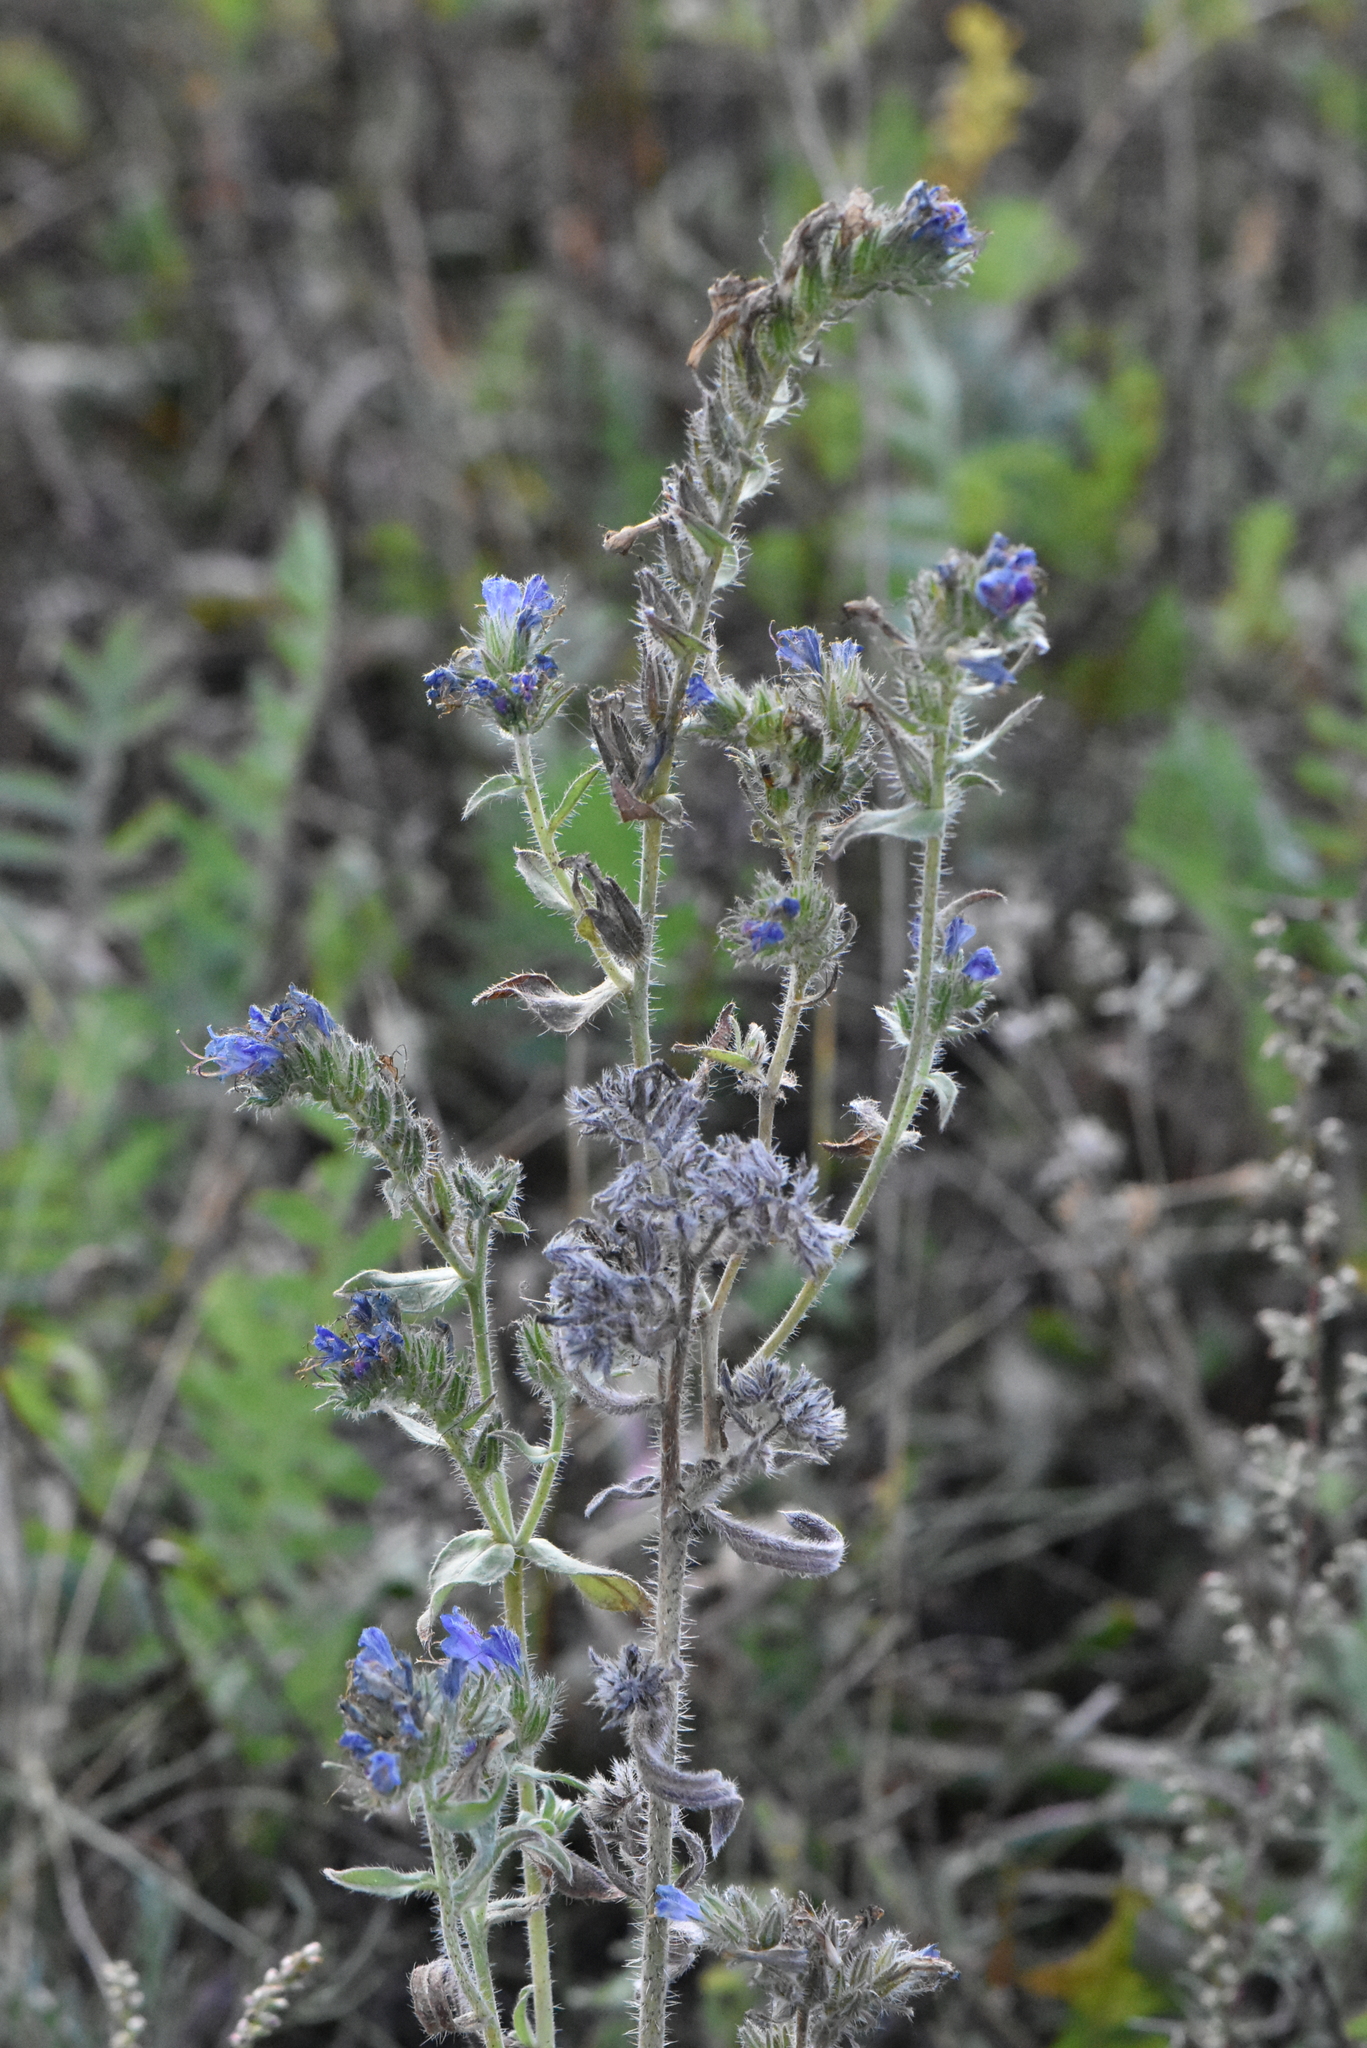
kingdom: Plantae
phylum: Tracheophyta
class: Magnoliopsida
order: Boraginales
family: Boraginaceae
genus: Echium
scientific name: Echium vulgare
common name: Common viper's bugloss
